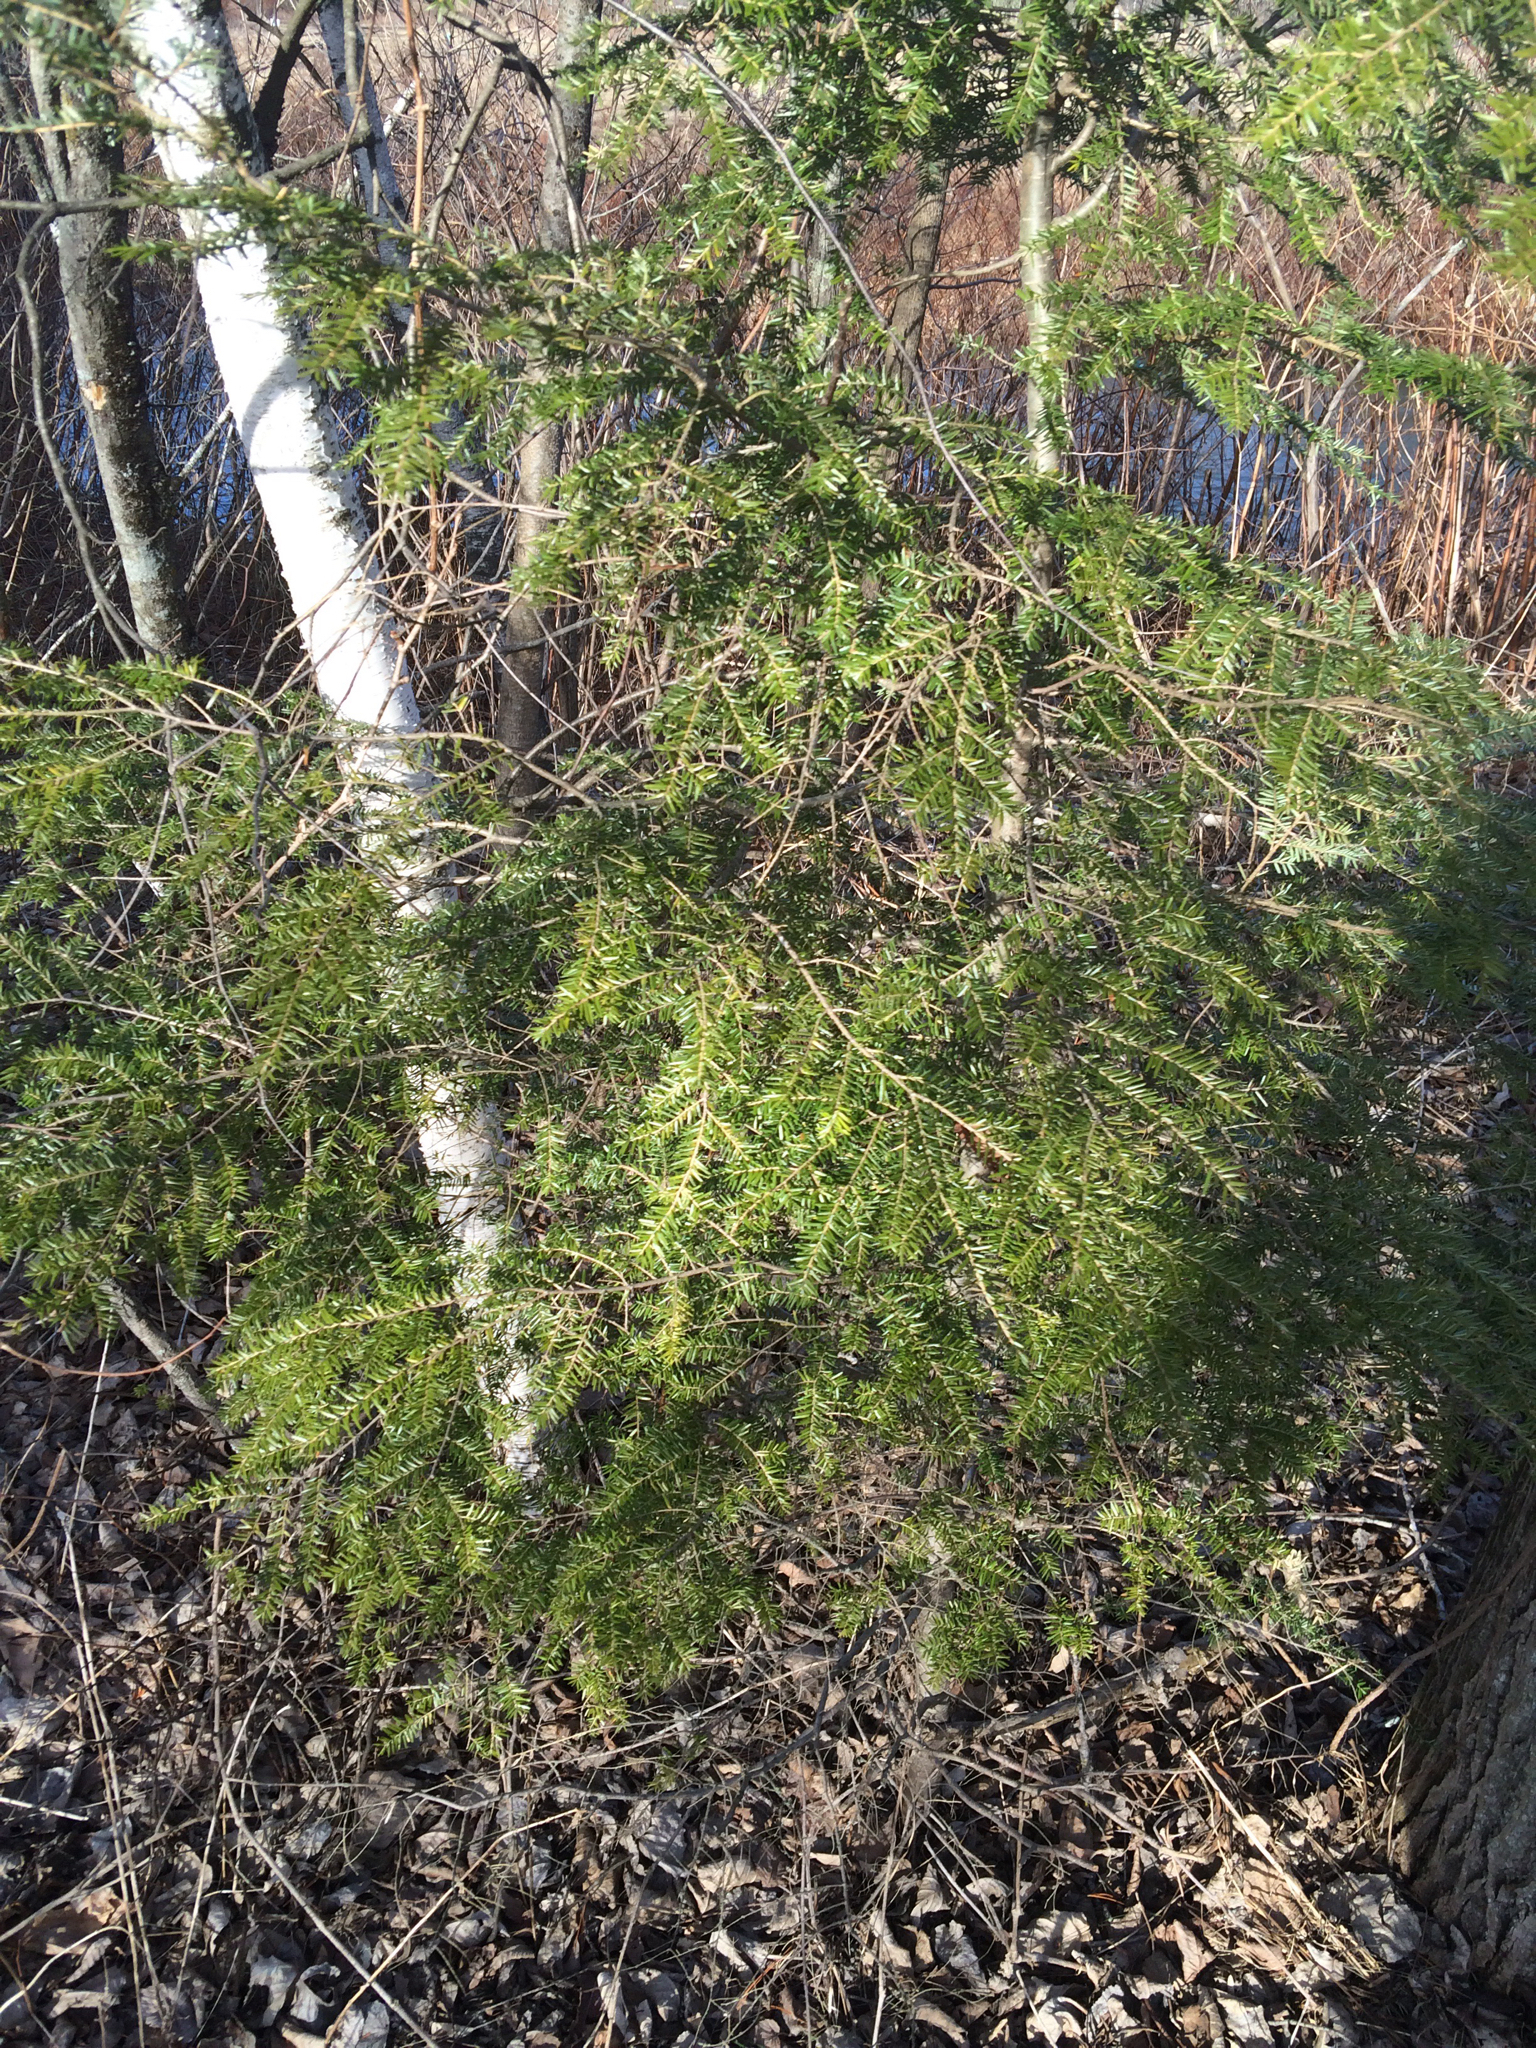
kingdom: Plantae
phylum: Tracheophyta
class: Pinopsida
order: Pinales
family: Pinaceae
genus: Tsuga
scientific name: Tsuga canadensis
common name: Eastern hemlock
